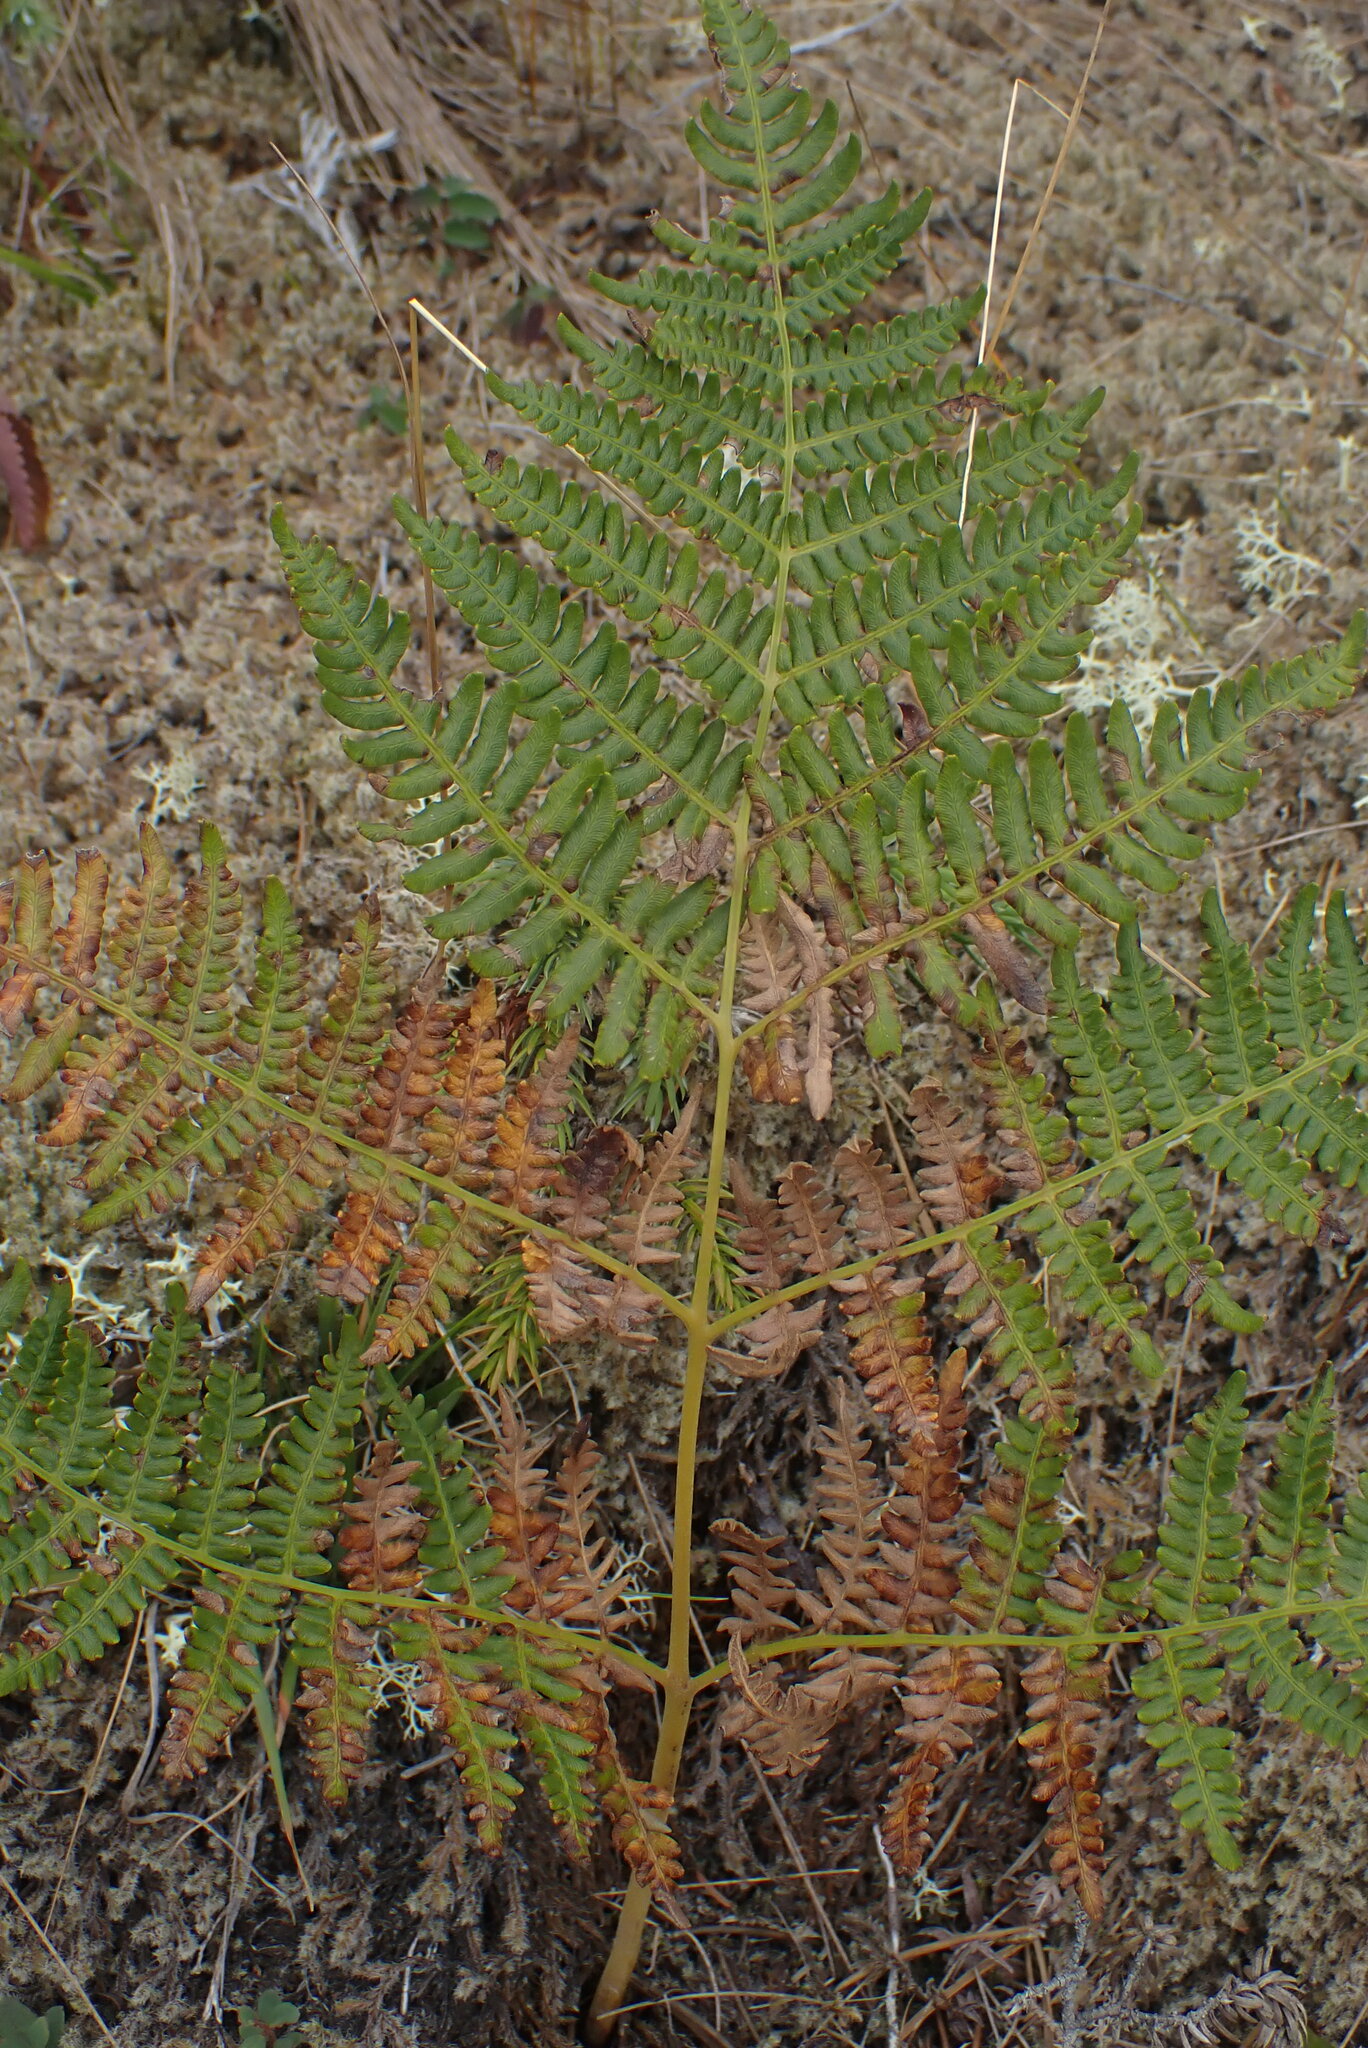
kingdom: Plantae
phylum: Tracheophyta
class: Polypodiopsida
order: Polypodiales
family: Dennstaedtiaceae
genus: Pteridium
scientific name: Pteridium aquilinum
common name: Bracken
